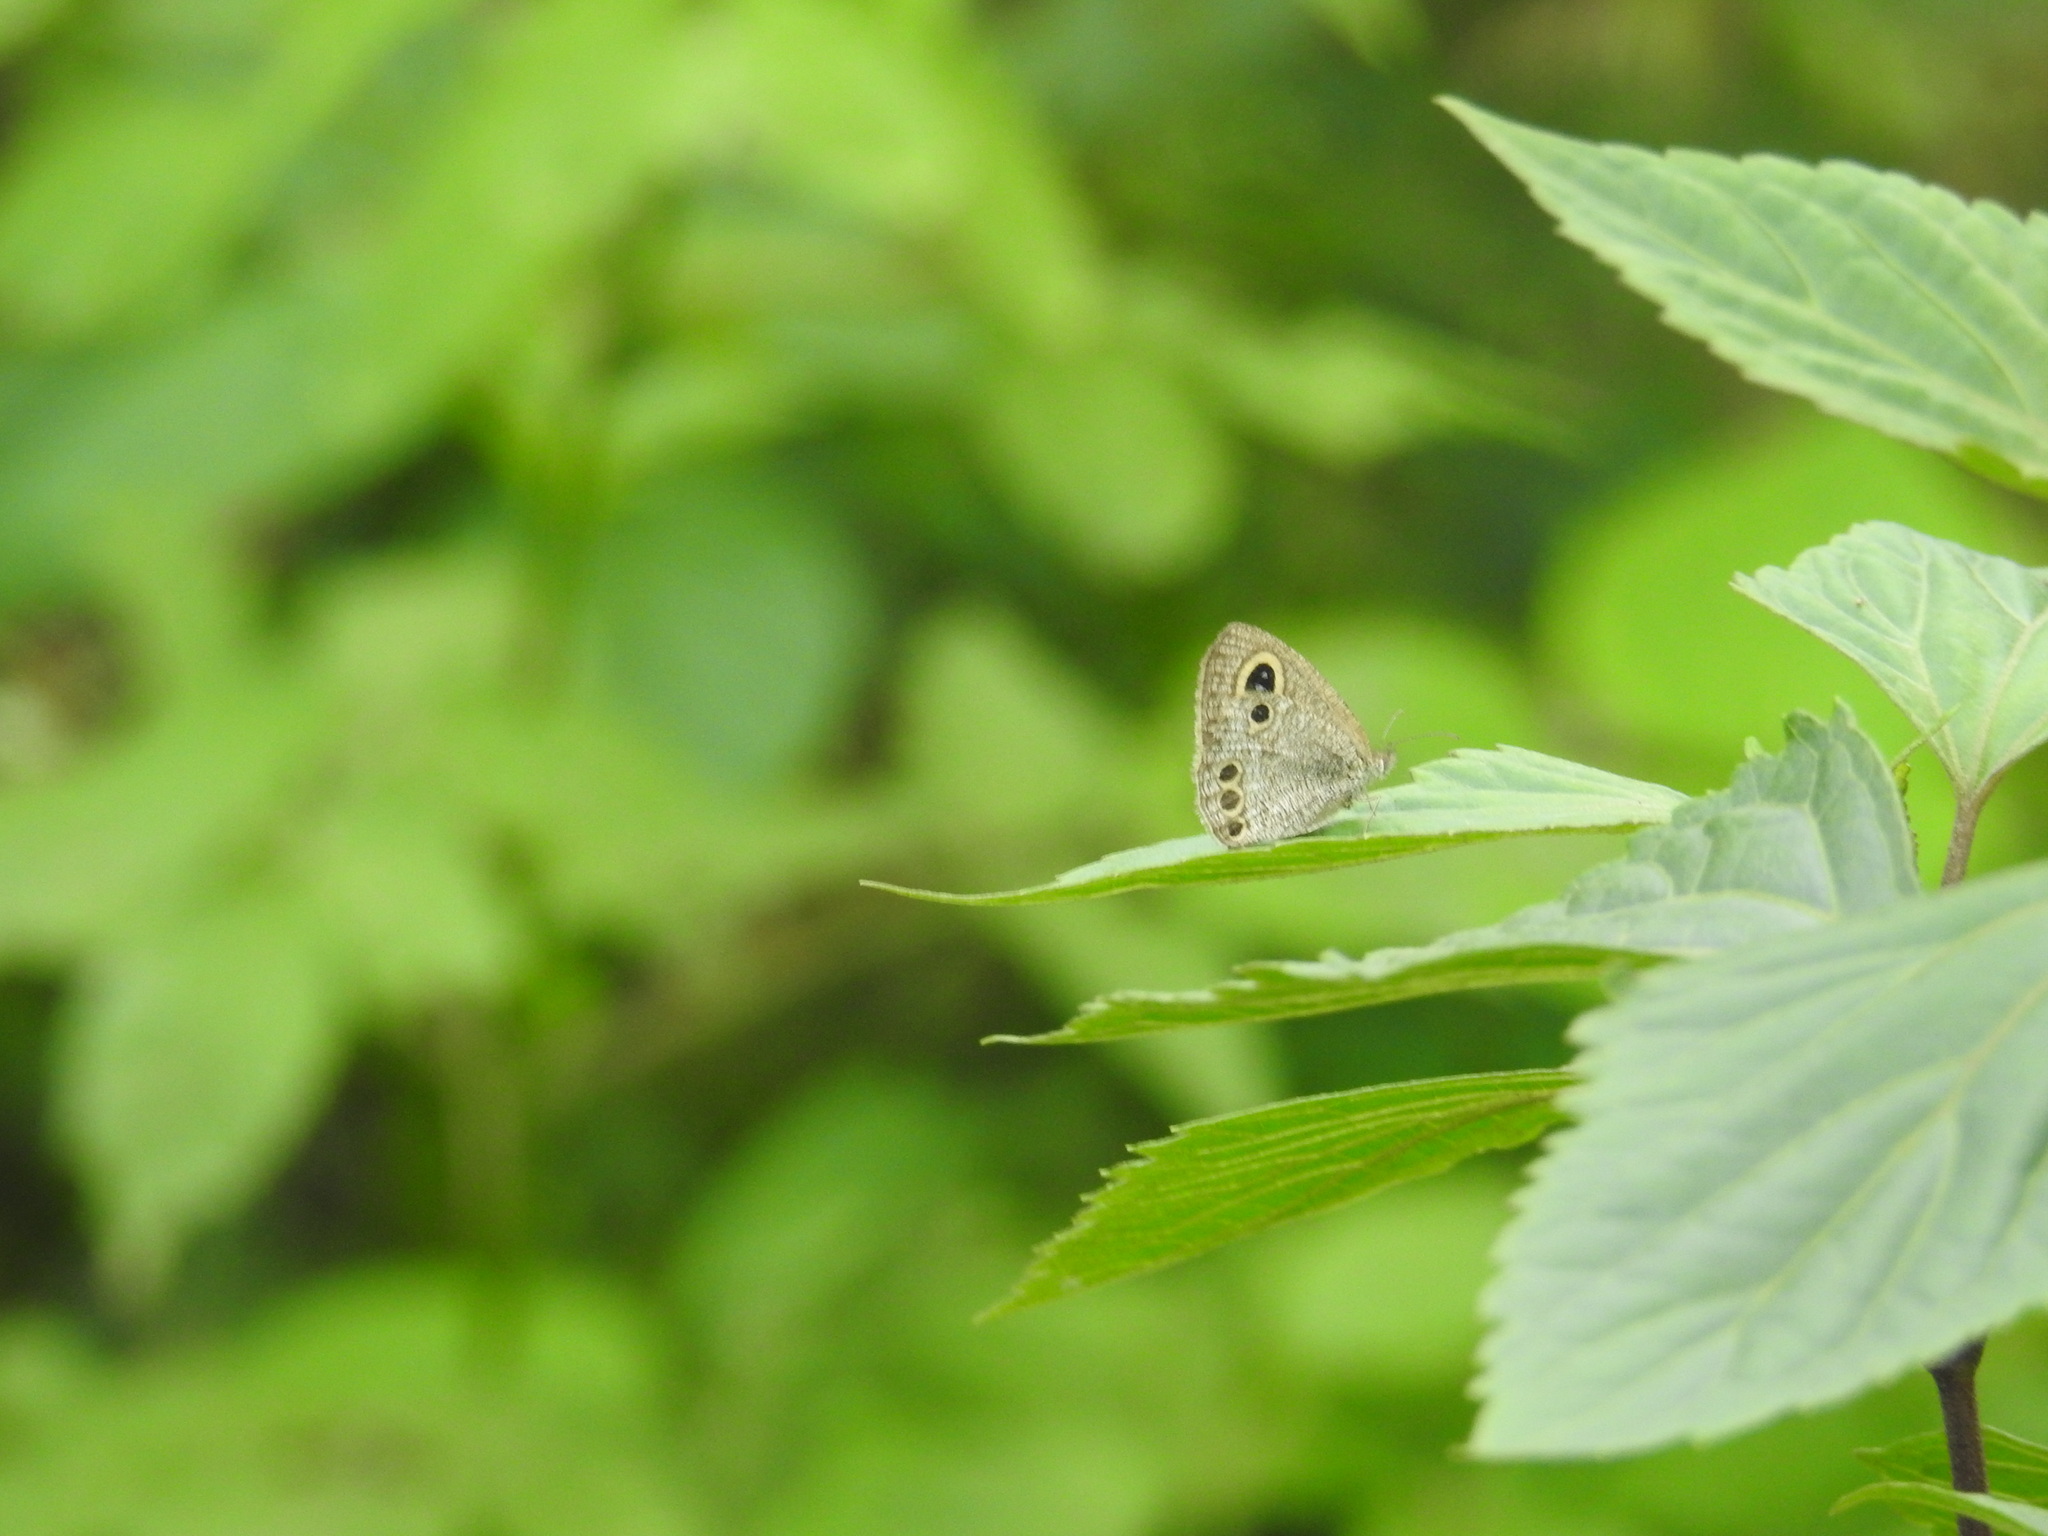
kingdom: Animalia
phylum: Arthropoda
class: Insecta
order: Lepidoptera
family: Nymphalidae
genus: Ypthima
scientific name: Ypthima huebneri
